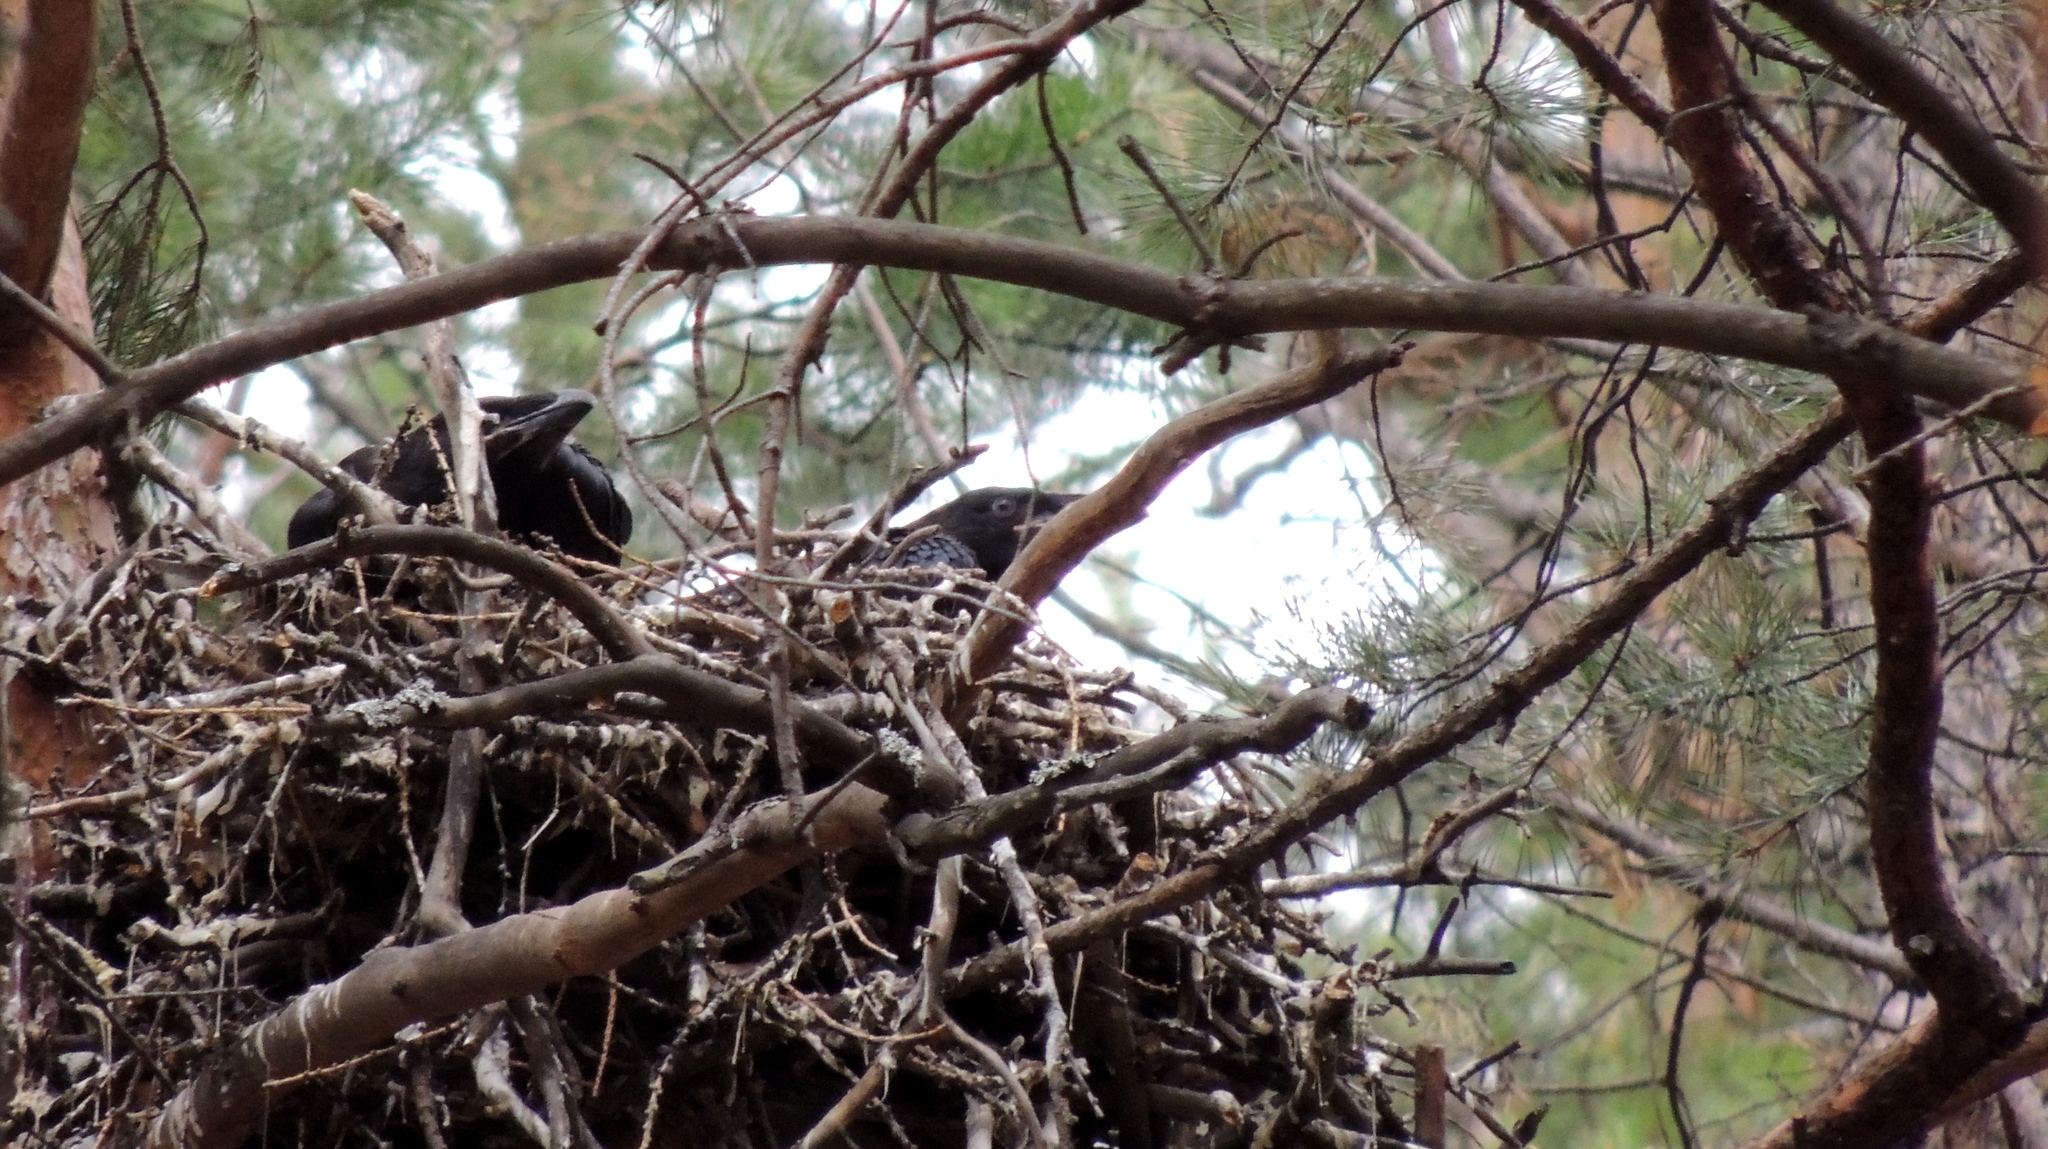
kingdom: Animalia
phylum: Chordata
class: Aves
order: Passeriformes
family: Corvidae
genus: Corvus
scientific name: Corvus corax
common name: Common raven
